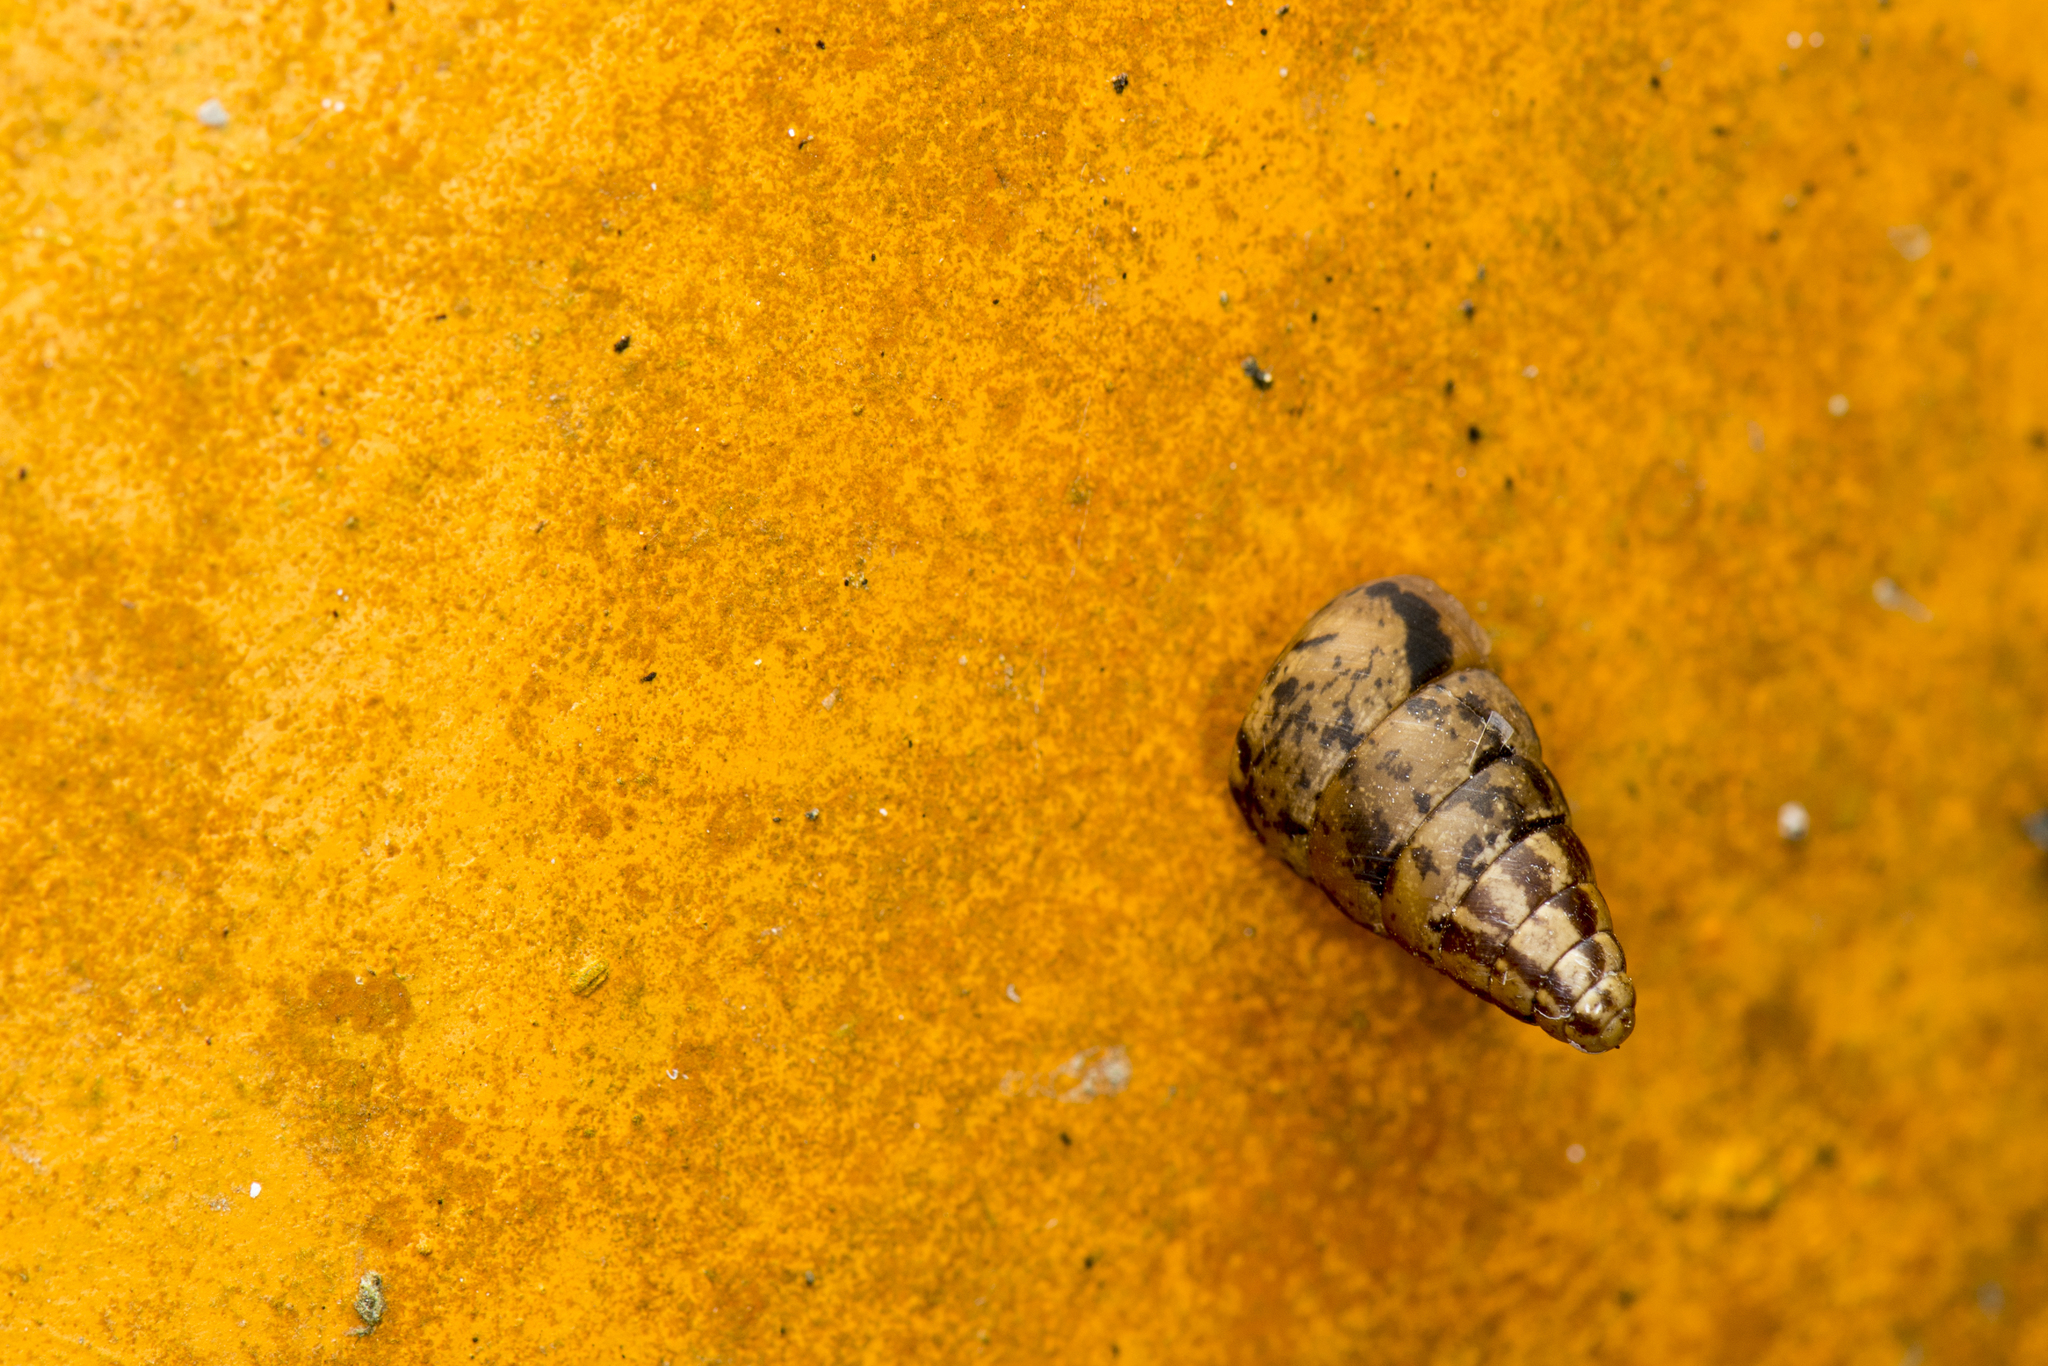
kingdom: Animalia
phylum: Mollusca
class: Gastropoda
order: Stylommatophora
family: Camaenidae
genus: Pseudobuliminus
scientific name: Pseudobuliminus certa
